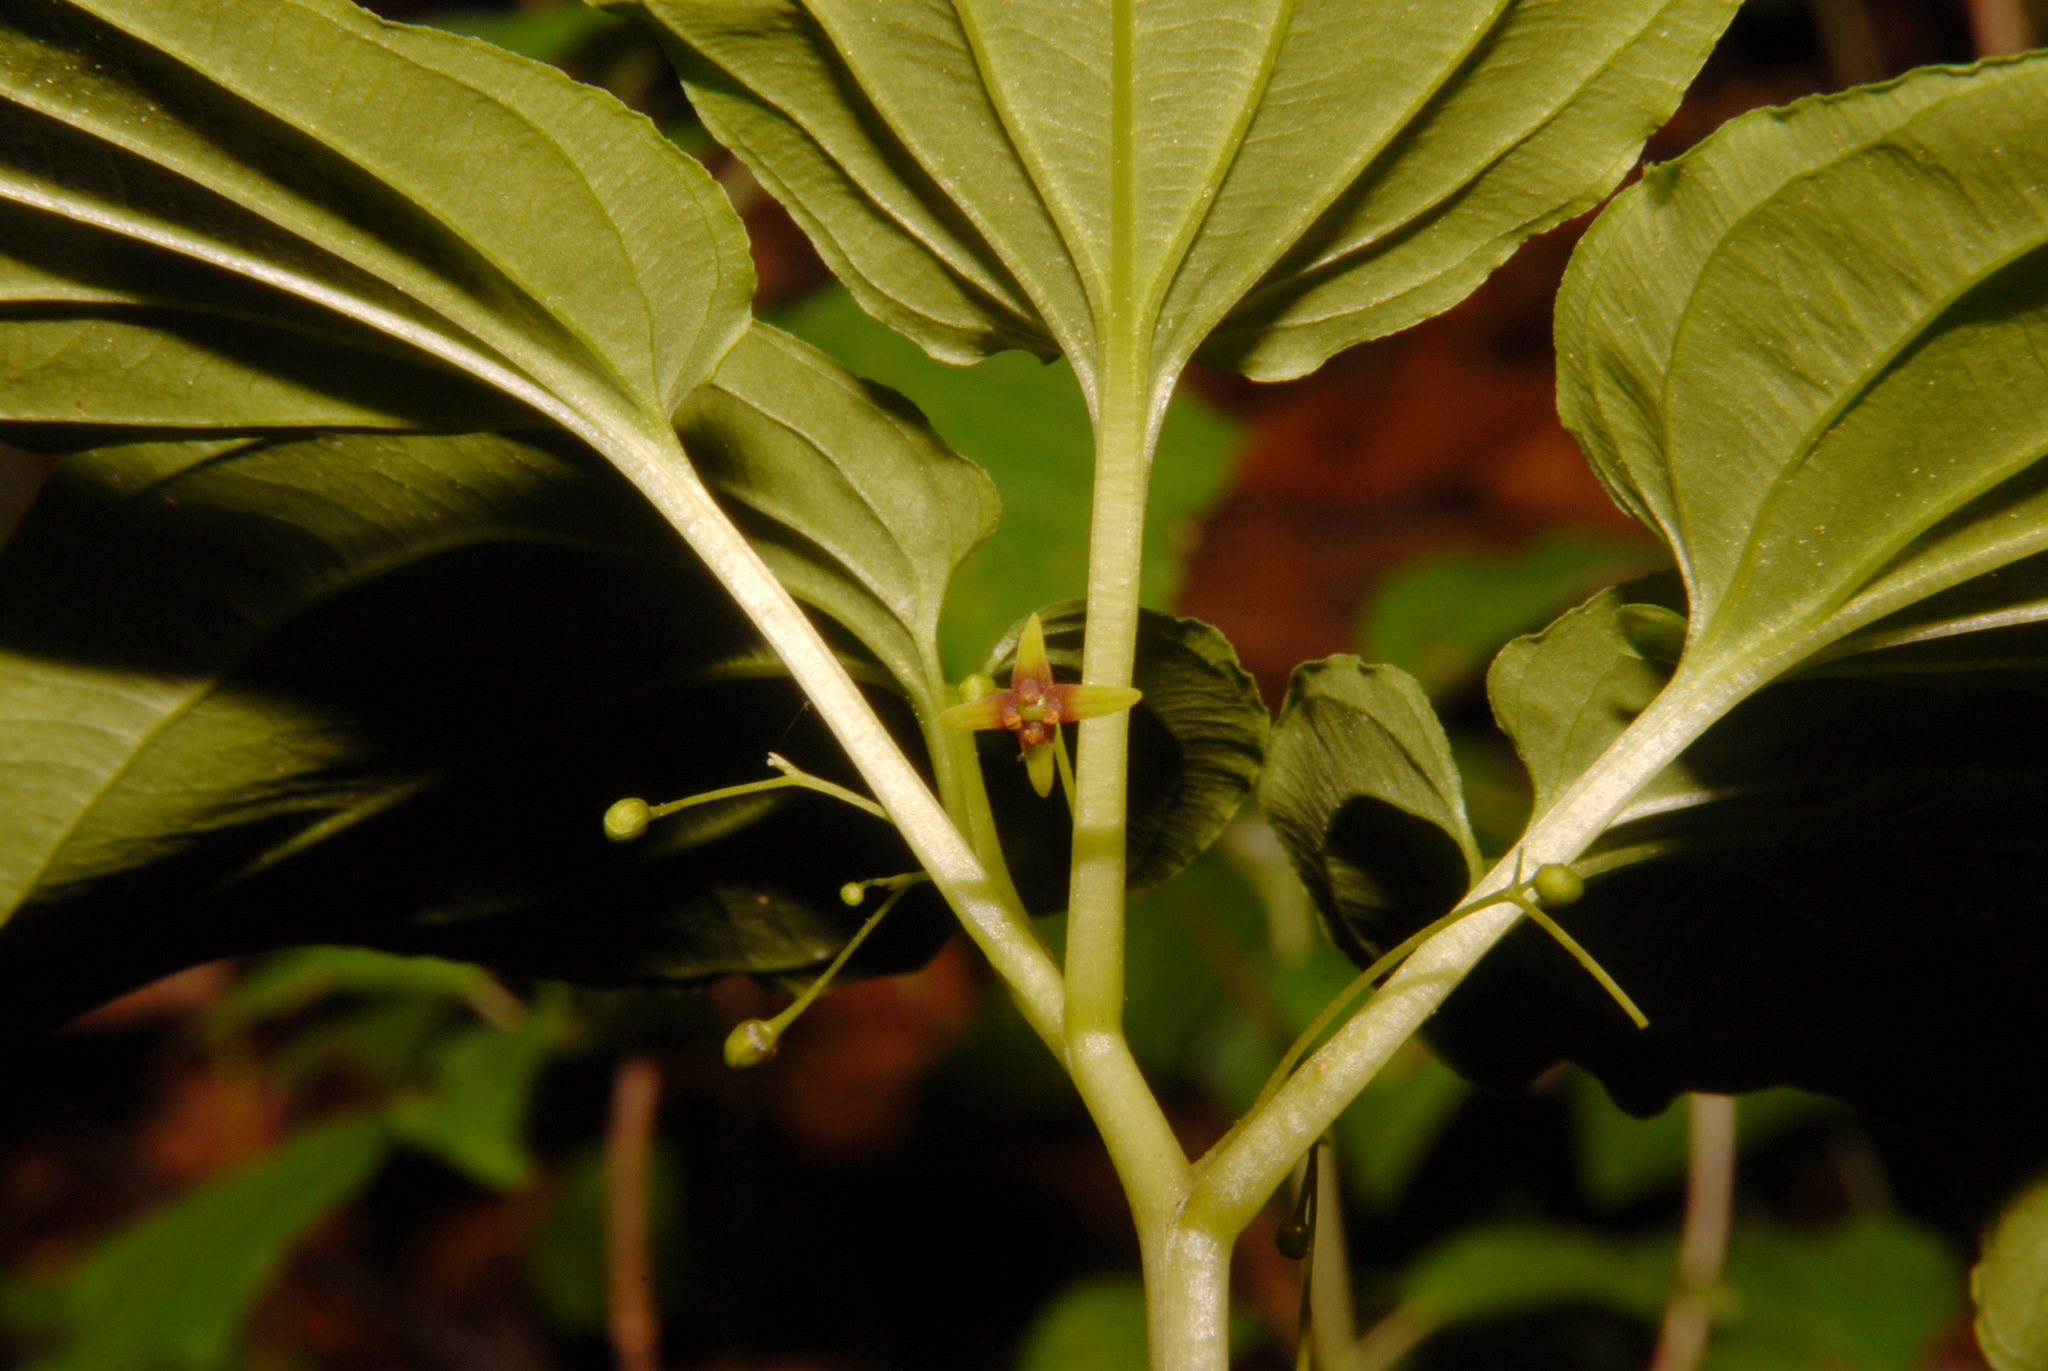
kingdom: Plantae
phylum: Tracheophyta
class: Liliopsida
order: Pandanales
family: Stemonaceae
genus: Croomia
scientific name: Croomia pauciflora
